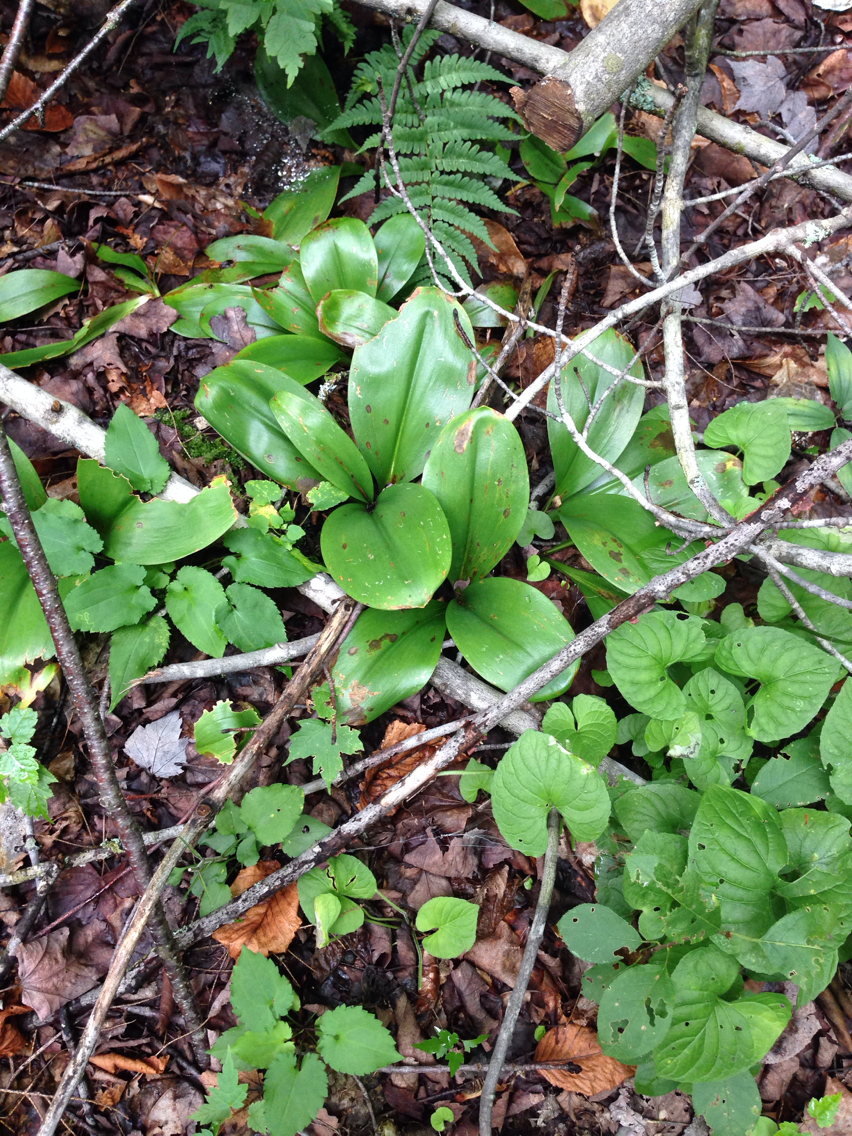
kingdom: Plantae
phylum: Tracheophyta
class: Liliopsida
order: Liliales
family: Liliaceae
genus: Clintonia
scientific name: Clintonia borealis
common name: Yellow clintonia
